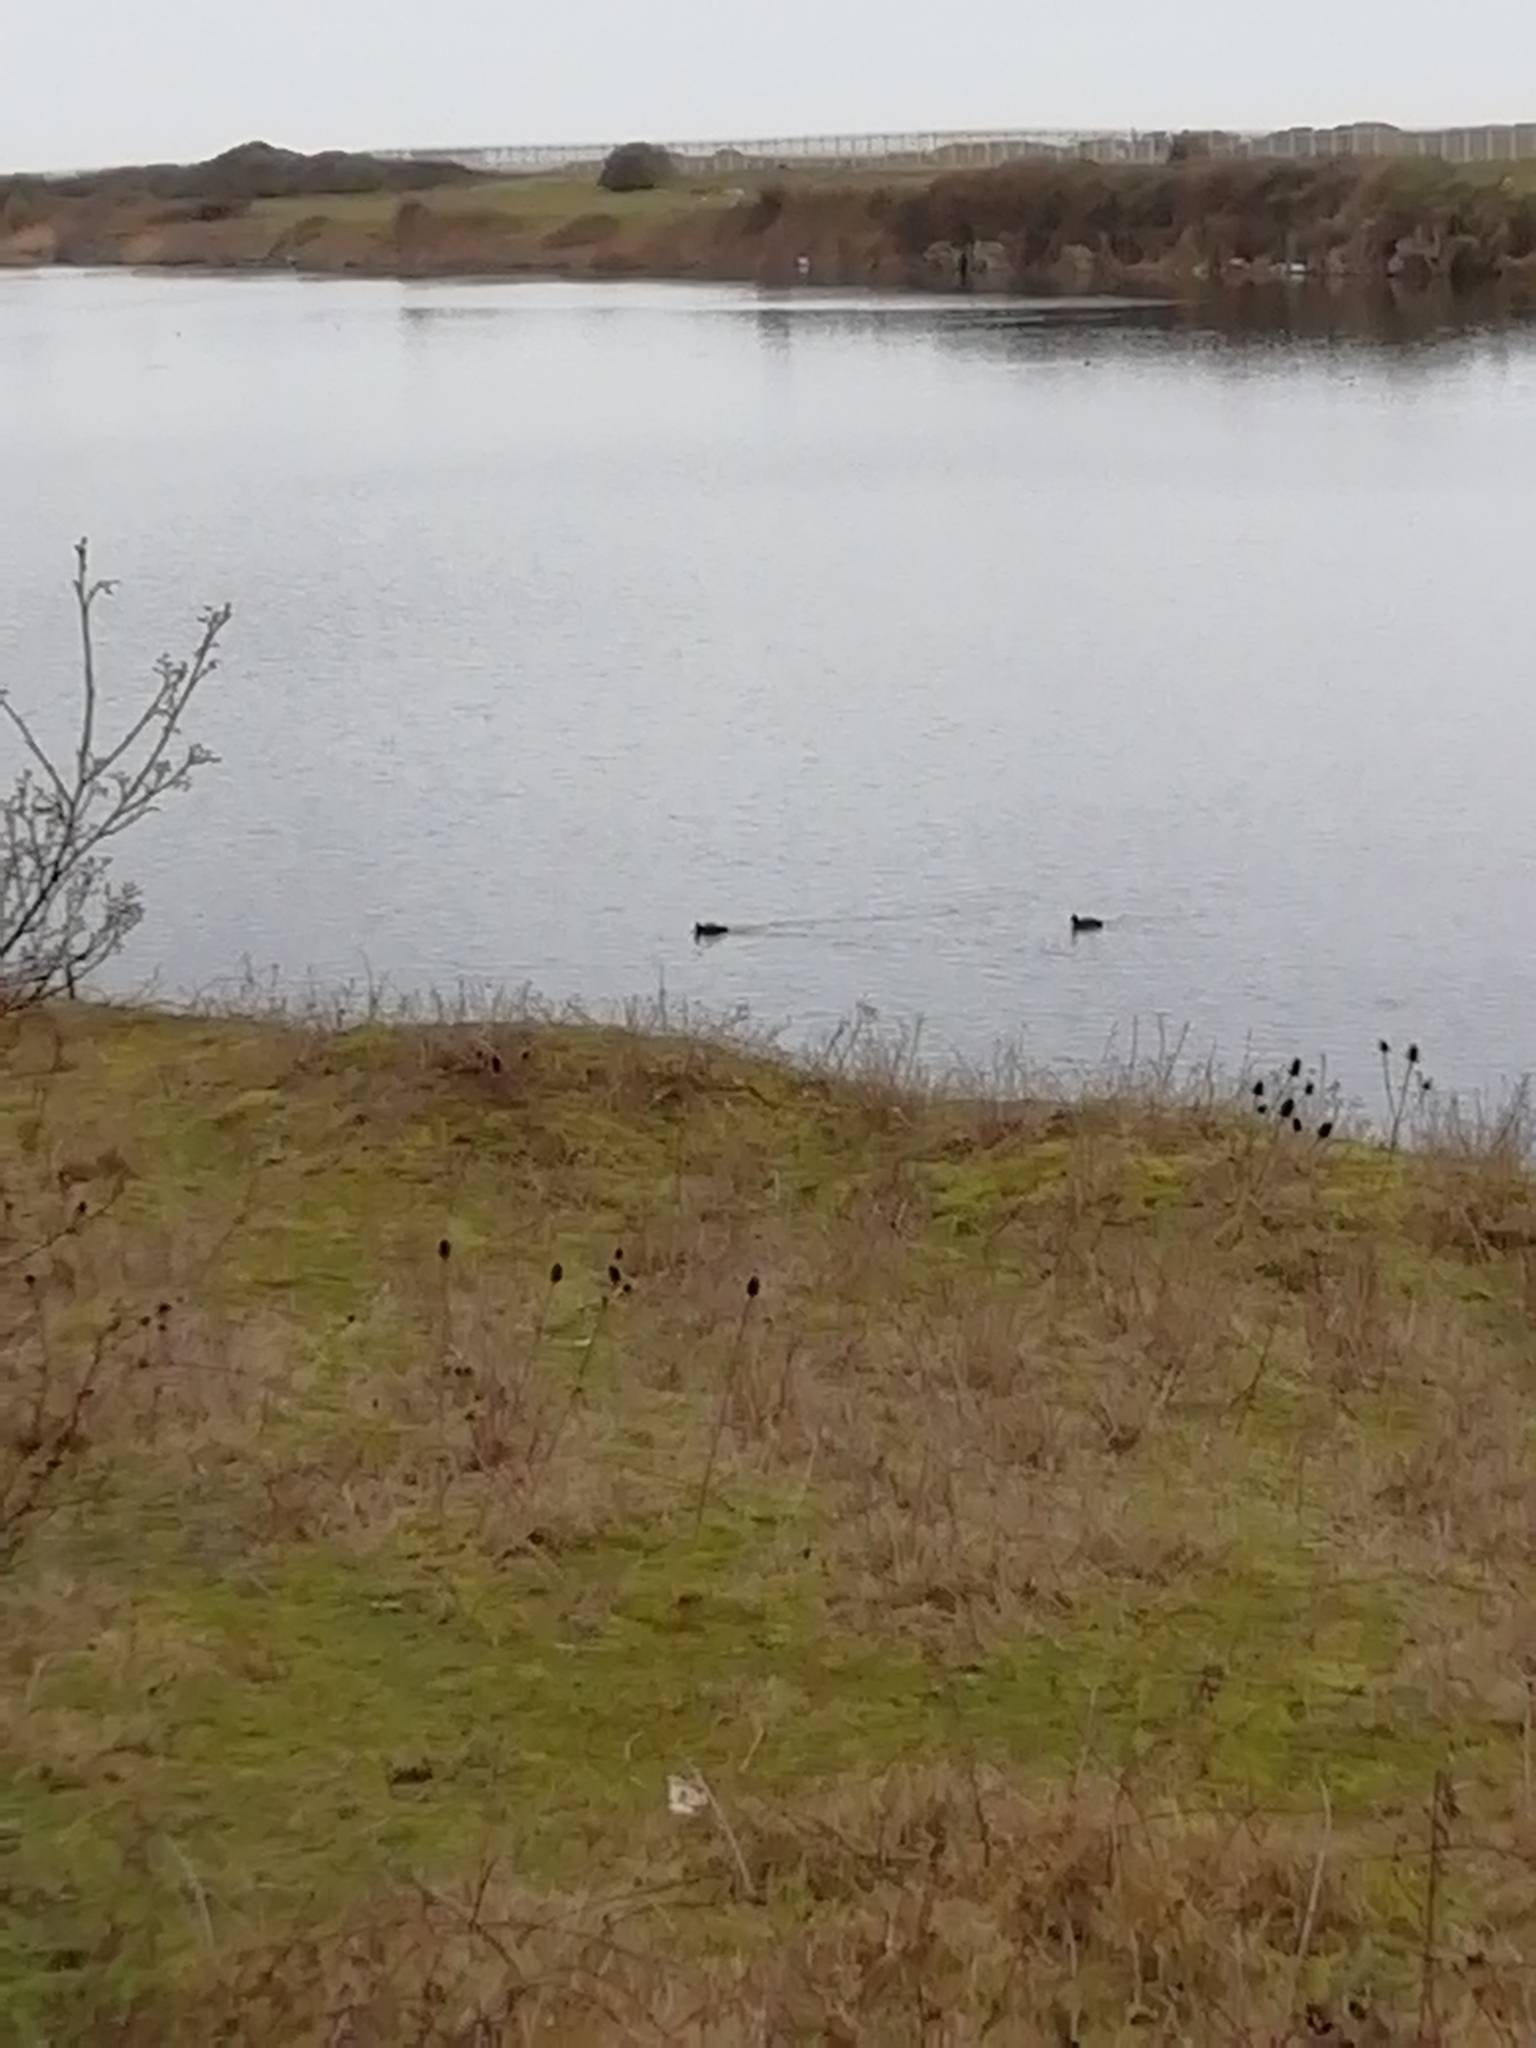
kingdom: Animalia
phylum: Chordata
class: Aves
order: Gruiformes
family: Rallidae
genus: Fulica
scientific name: Fulica atra
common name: Eurasian coot
